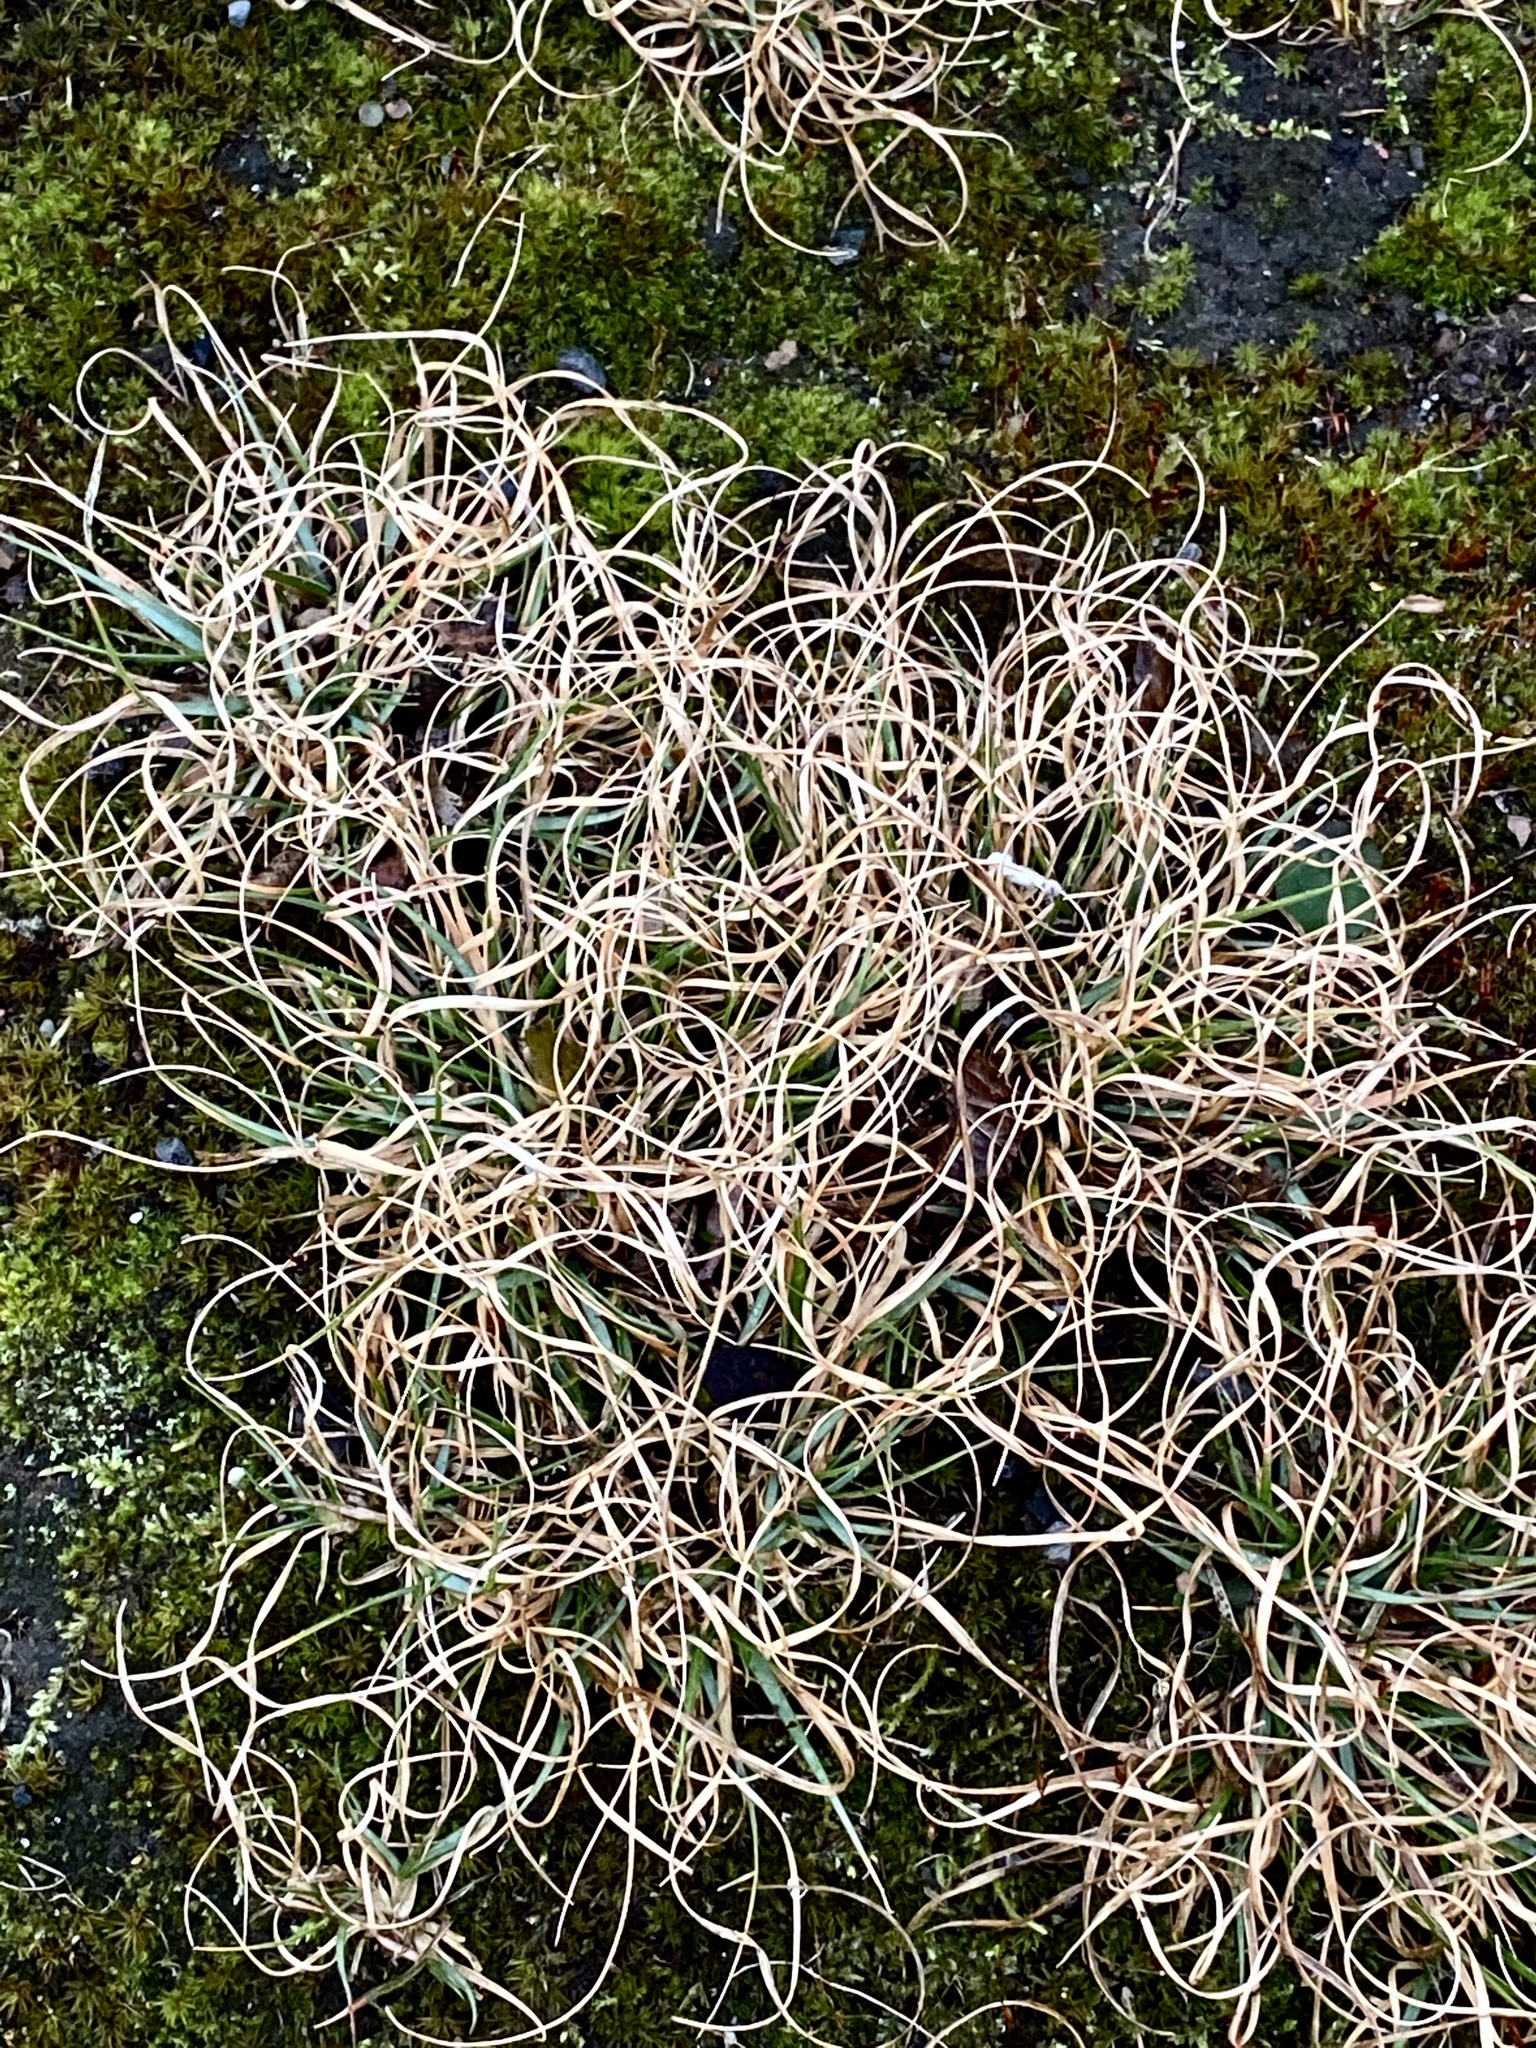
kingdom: Plantae
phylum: Tracheophyta
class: Liliopsida
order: Poales
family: Poaceae
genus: Danthonia
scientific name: Danthonia spicata
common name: Common wild oatgrass
